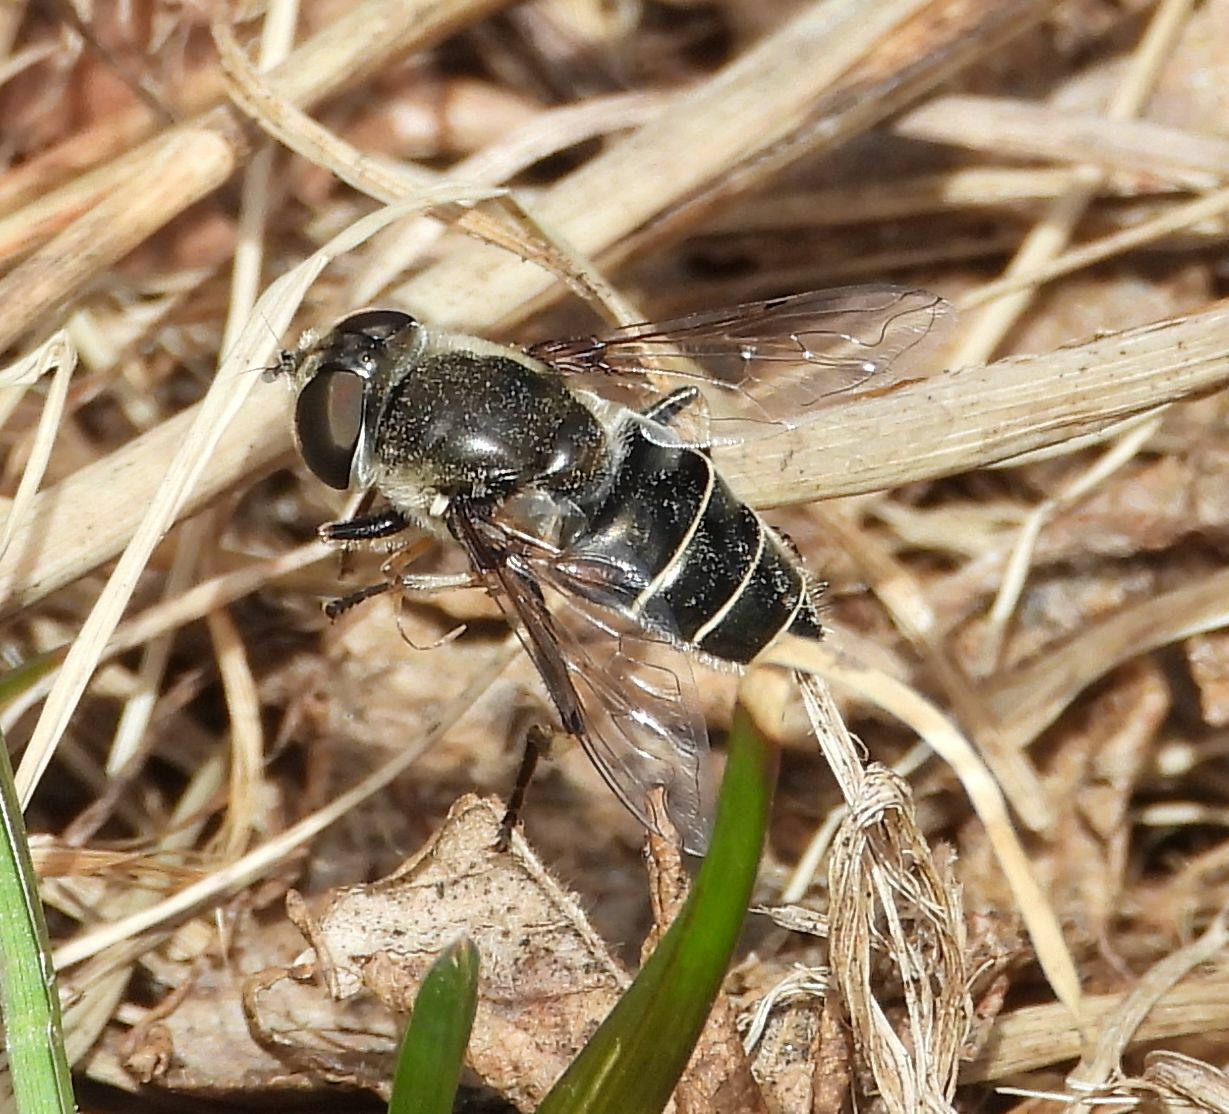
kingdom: Animalia
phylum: Arthropoda
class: Insecta
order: Diptera
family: Syrphidae
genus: Eristalis
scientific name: Eristalis dimidiata
